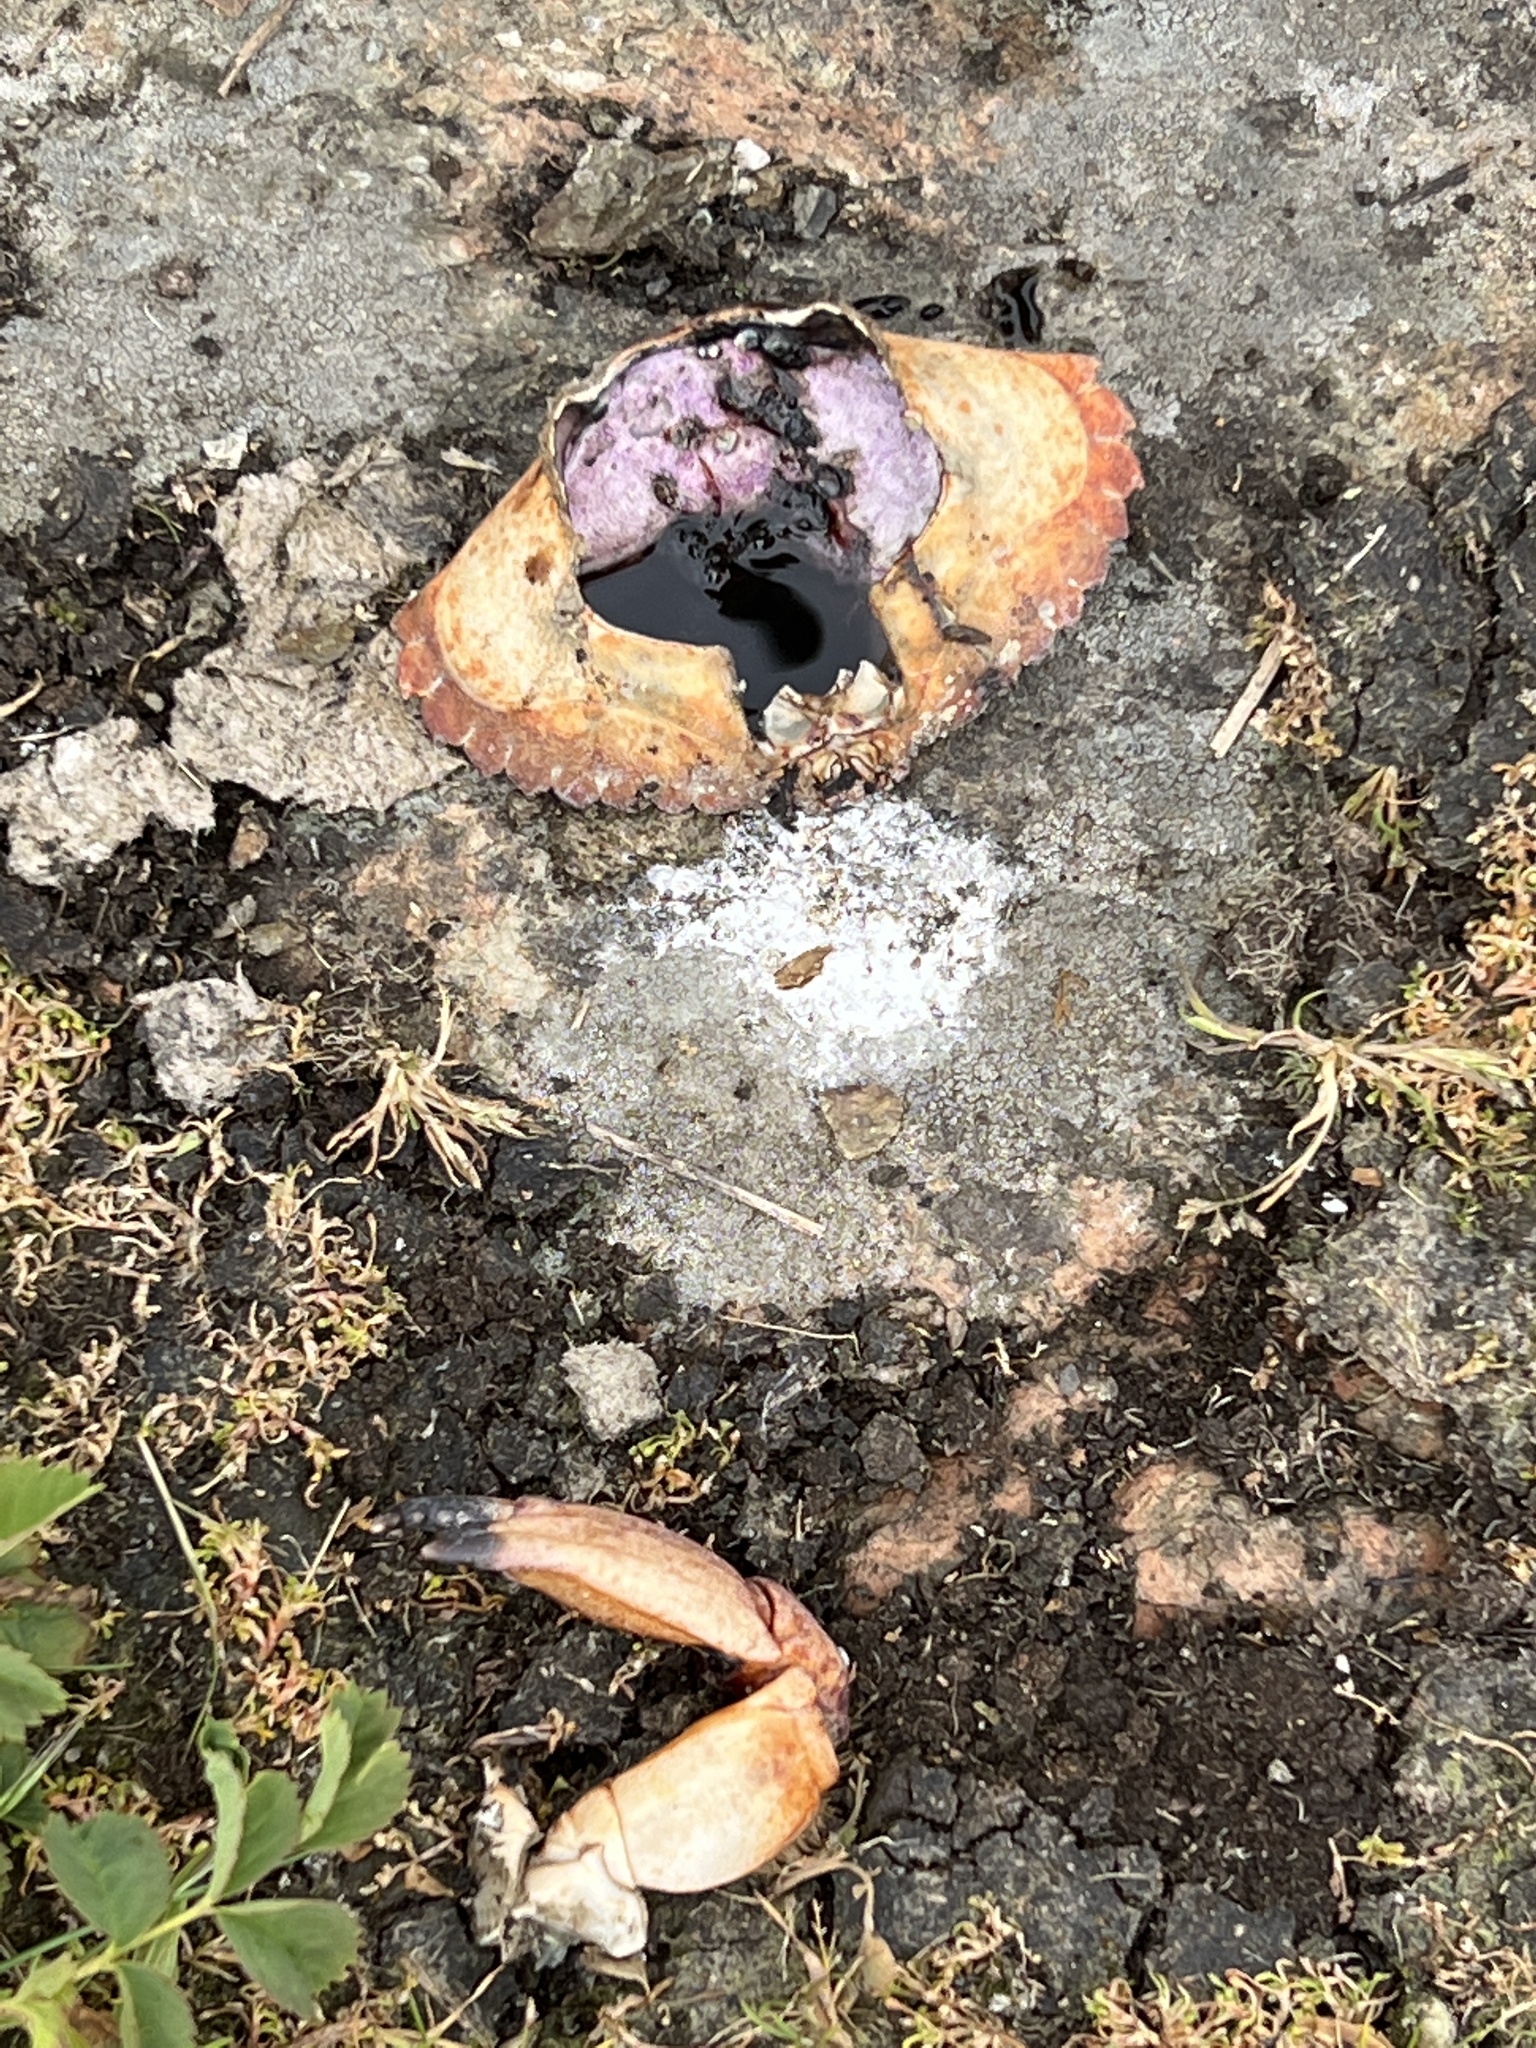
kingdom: Animalia
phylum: Arthropoda
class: Malacostraca
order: Decapoda
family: Cancridae
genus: Cancer
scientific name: Cancer productus
